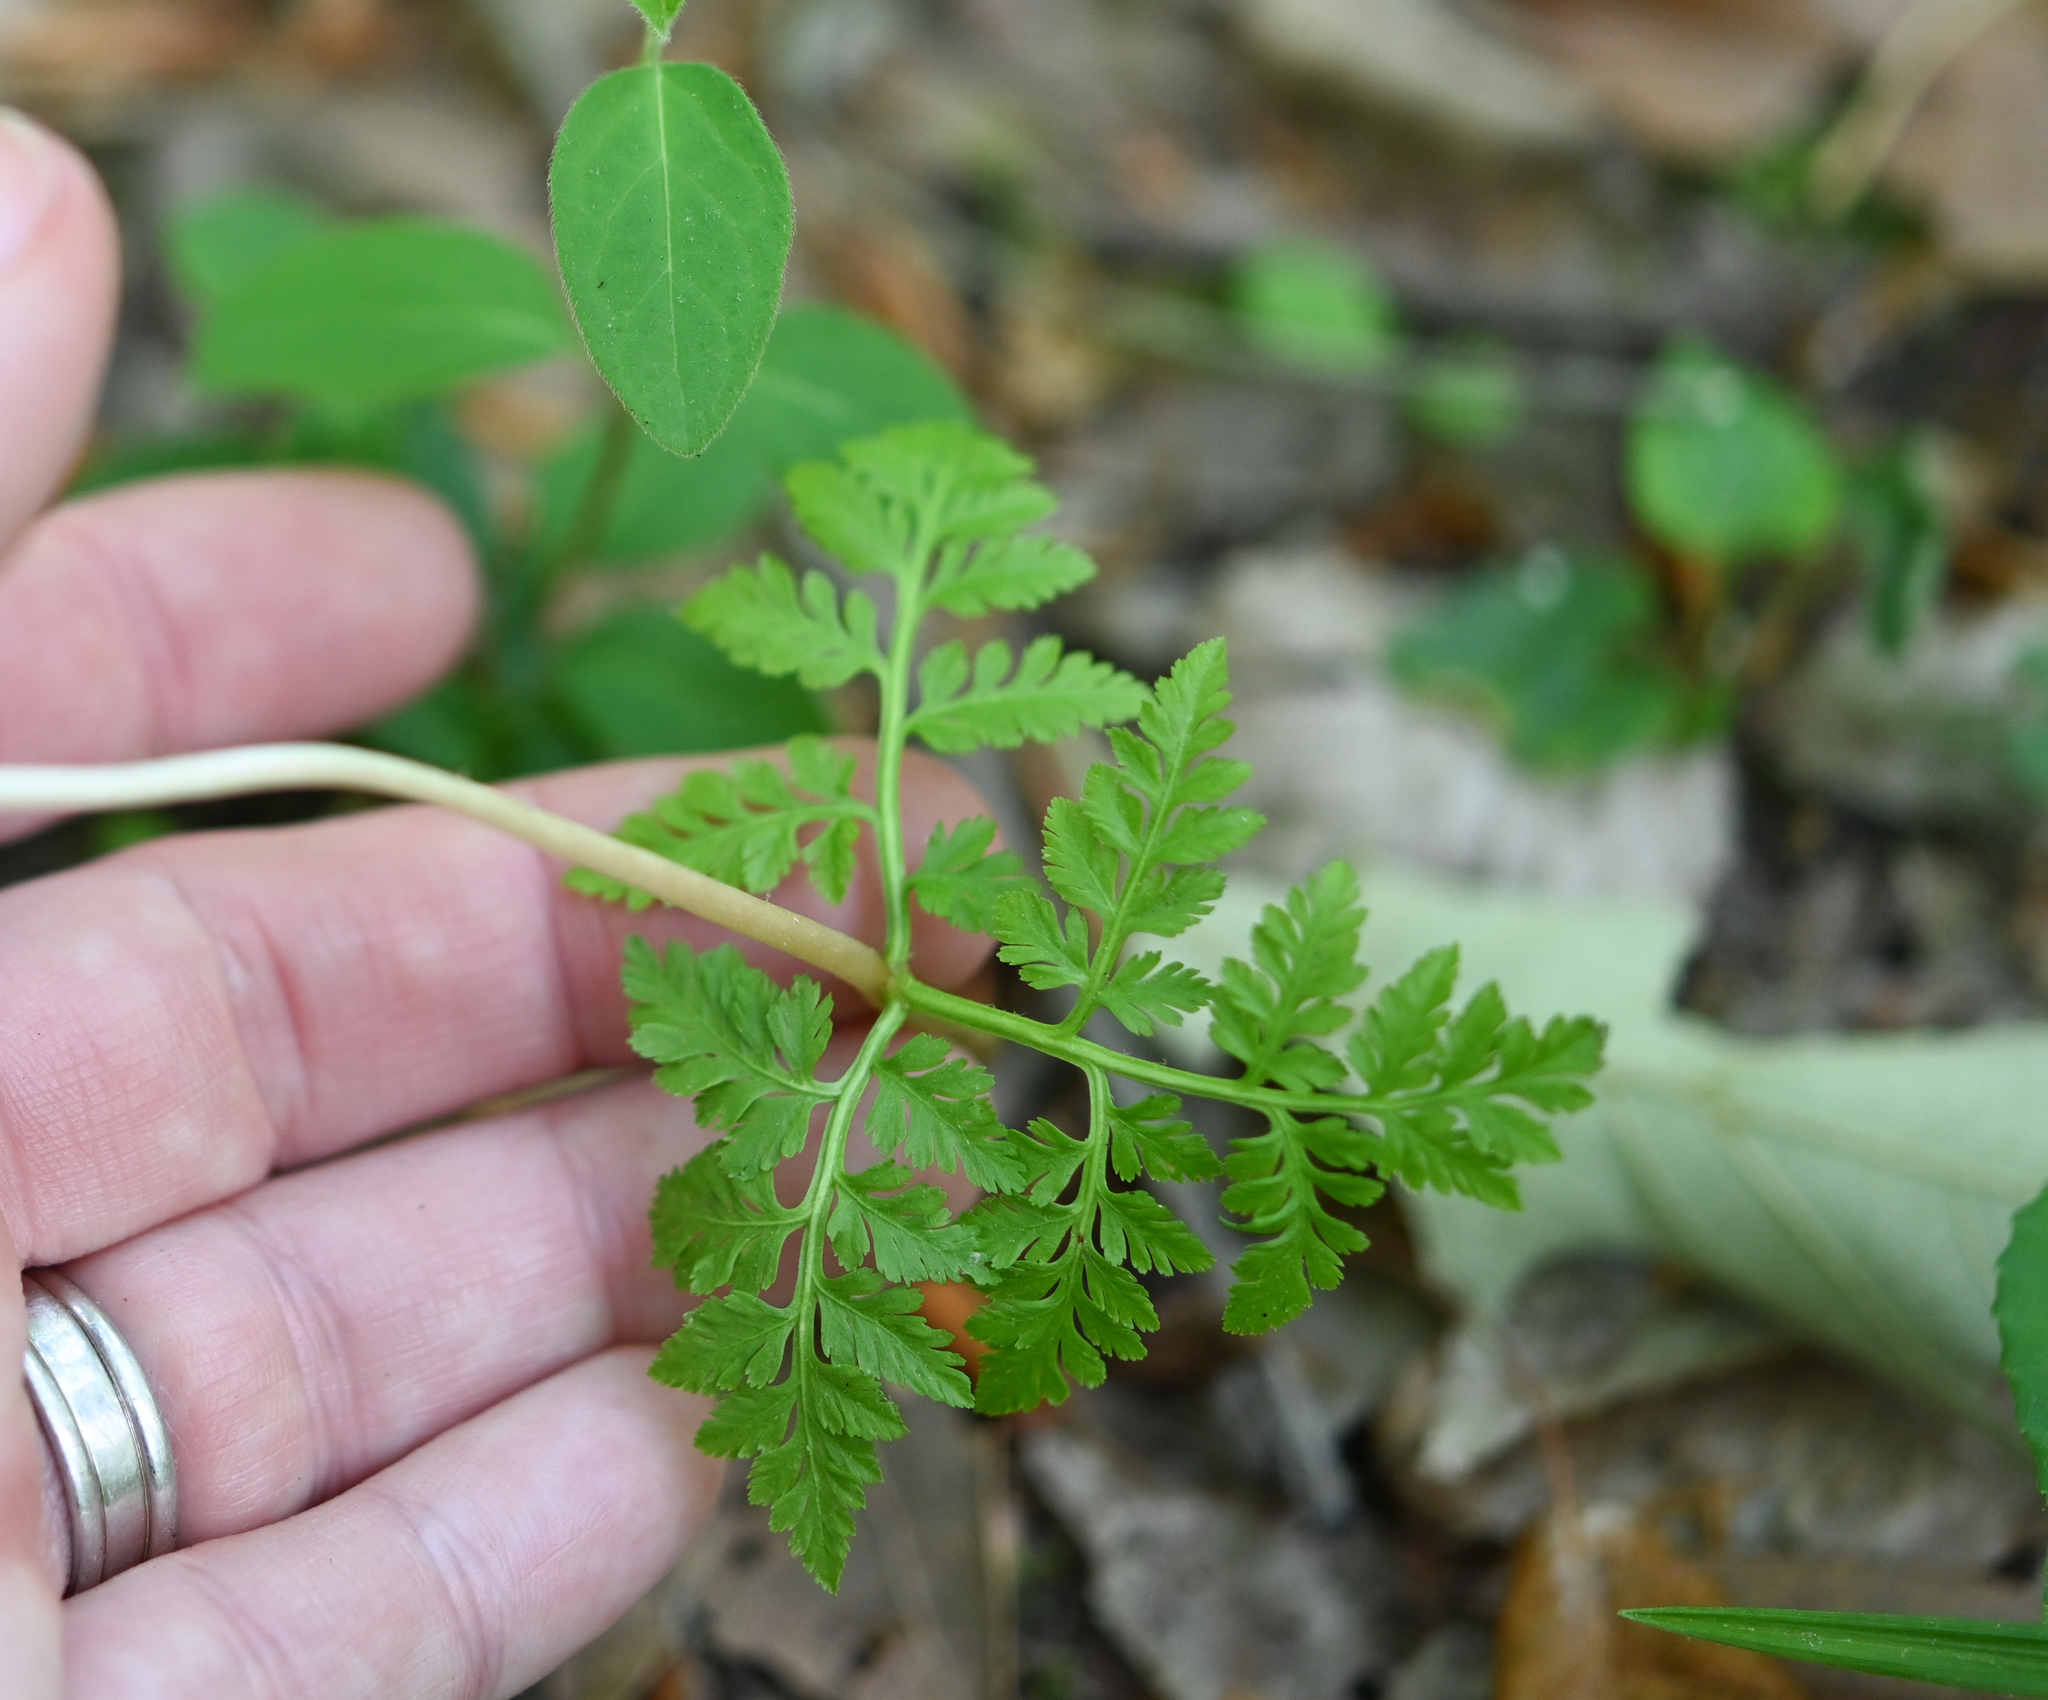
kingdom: Plantae
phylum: Tracheophyta
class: Polypodiopsida
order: Ophioglossales
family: Ophioglossaceae
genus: Botrypus
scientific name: Botrypus virginianus
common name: Common grapefern
